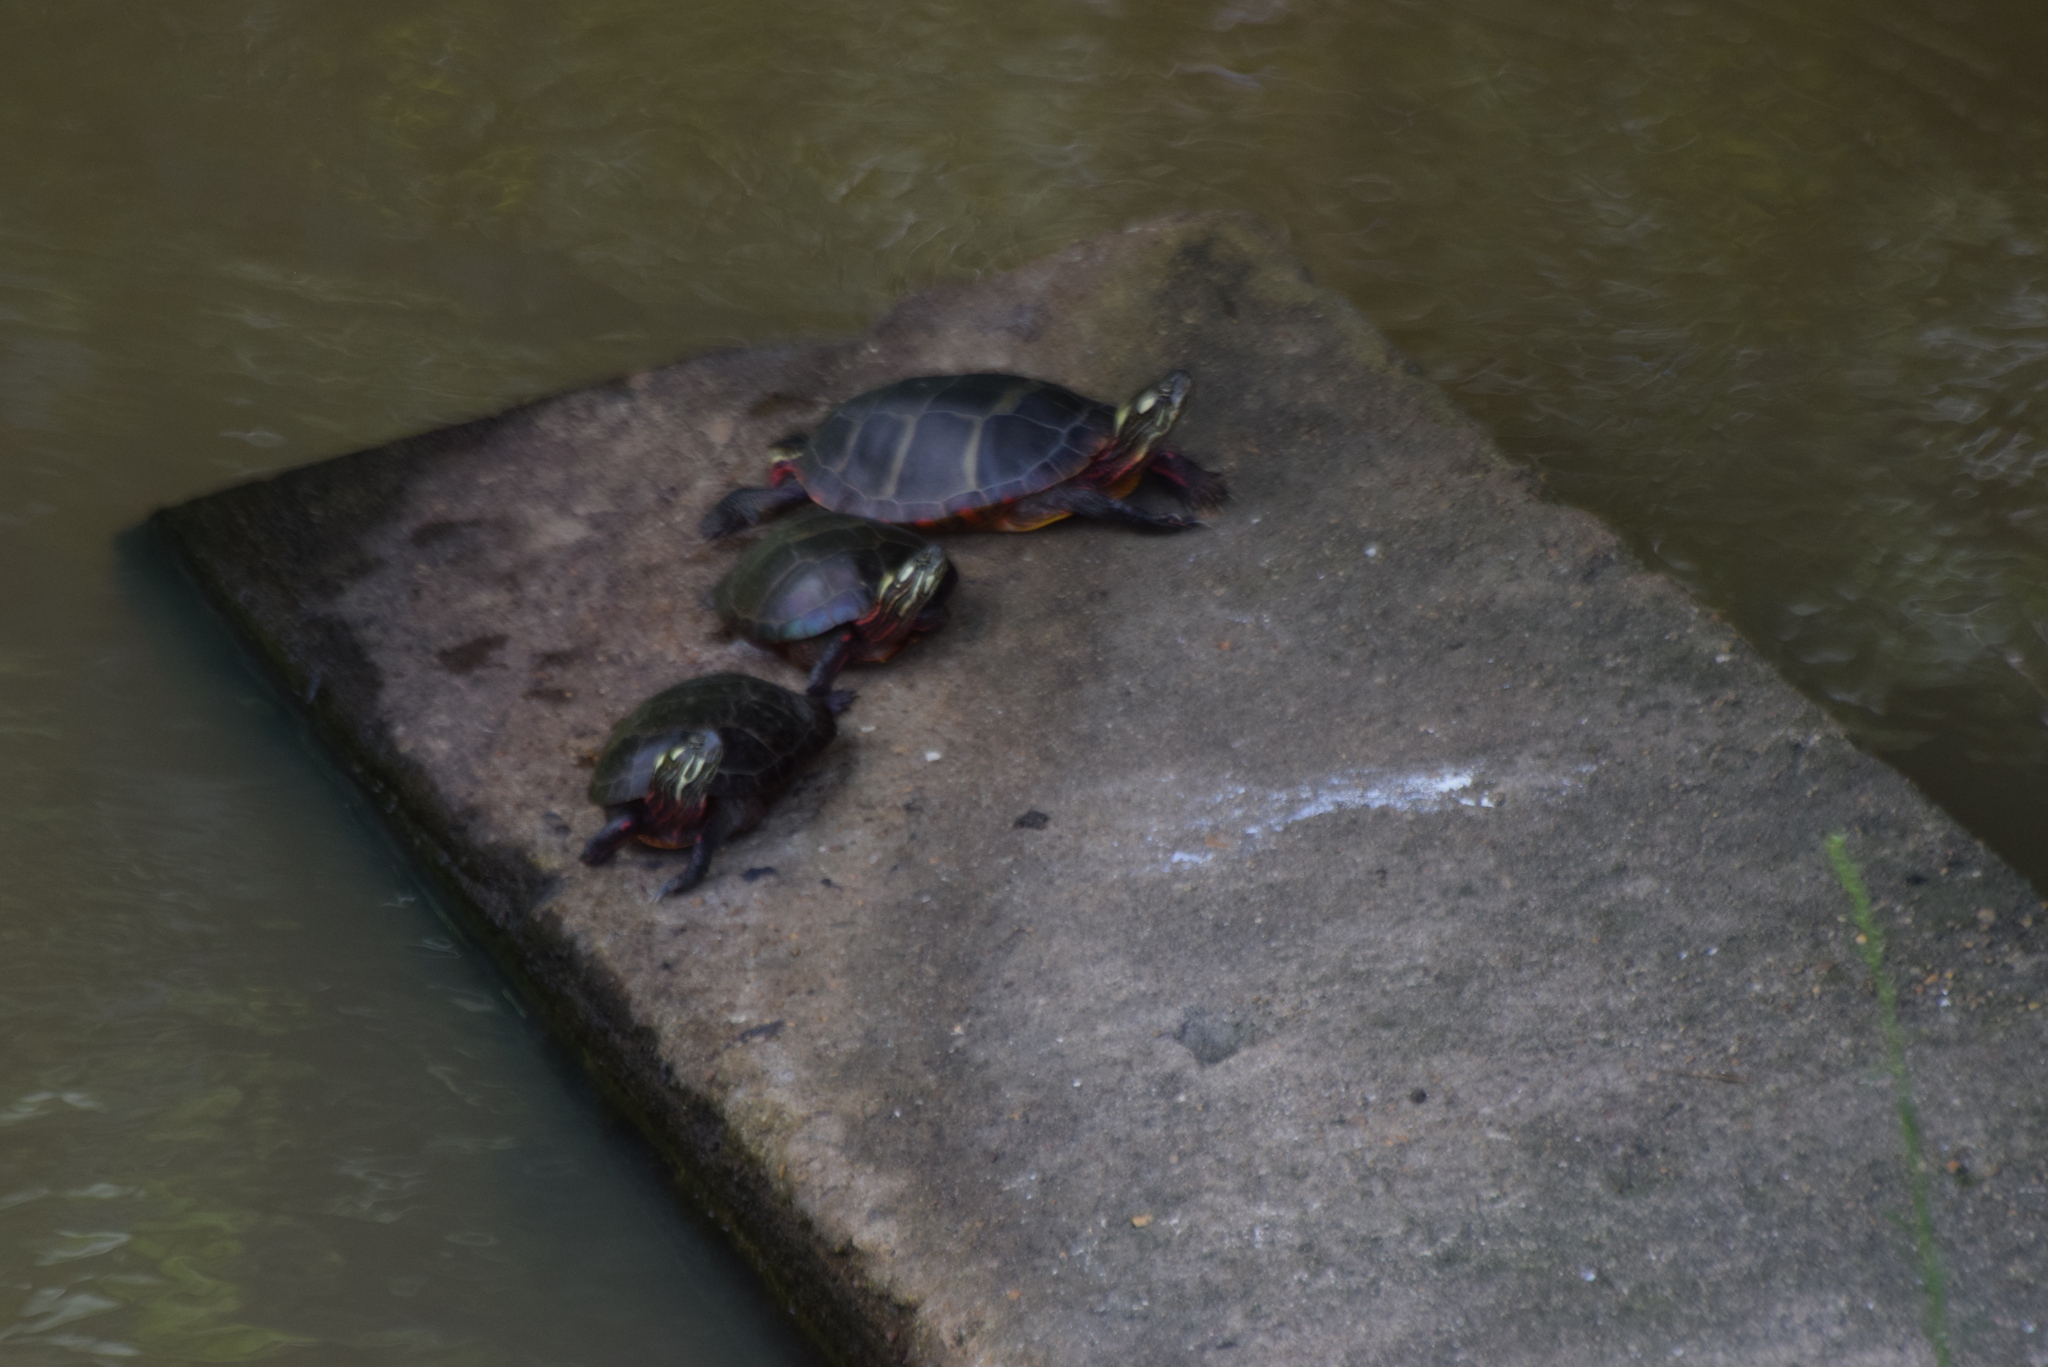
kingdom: Animalia
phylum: Chordata
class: Testudines
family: Emydidae
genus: Chrysemys
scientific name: Chrysemys picta
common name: Painted turtle
